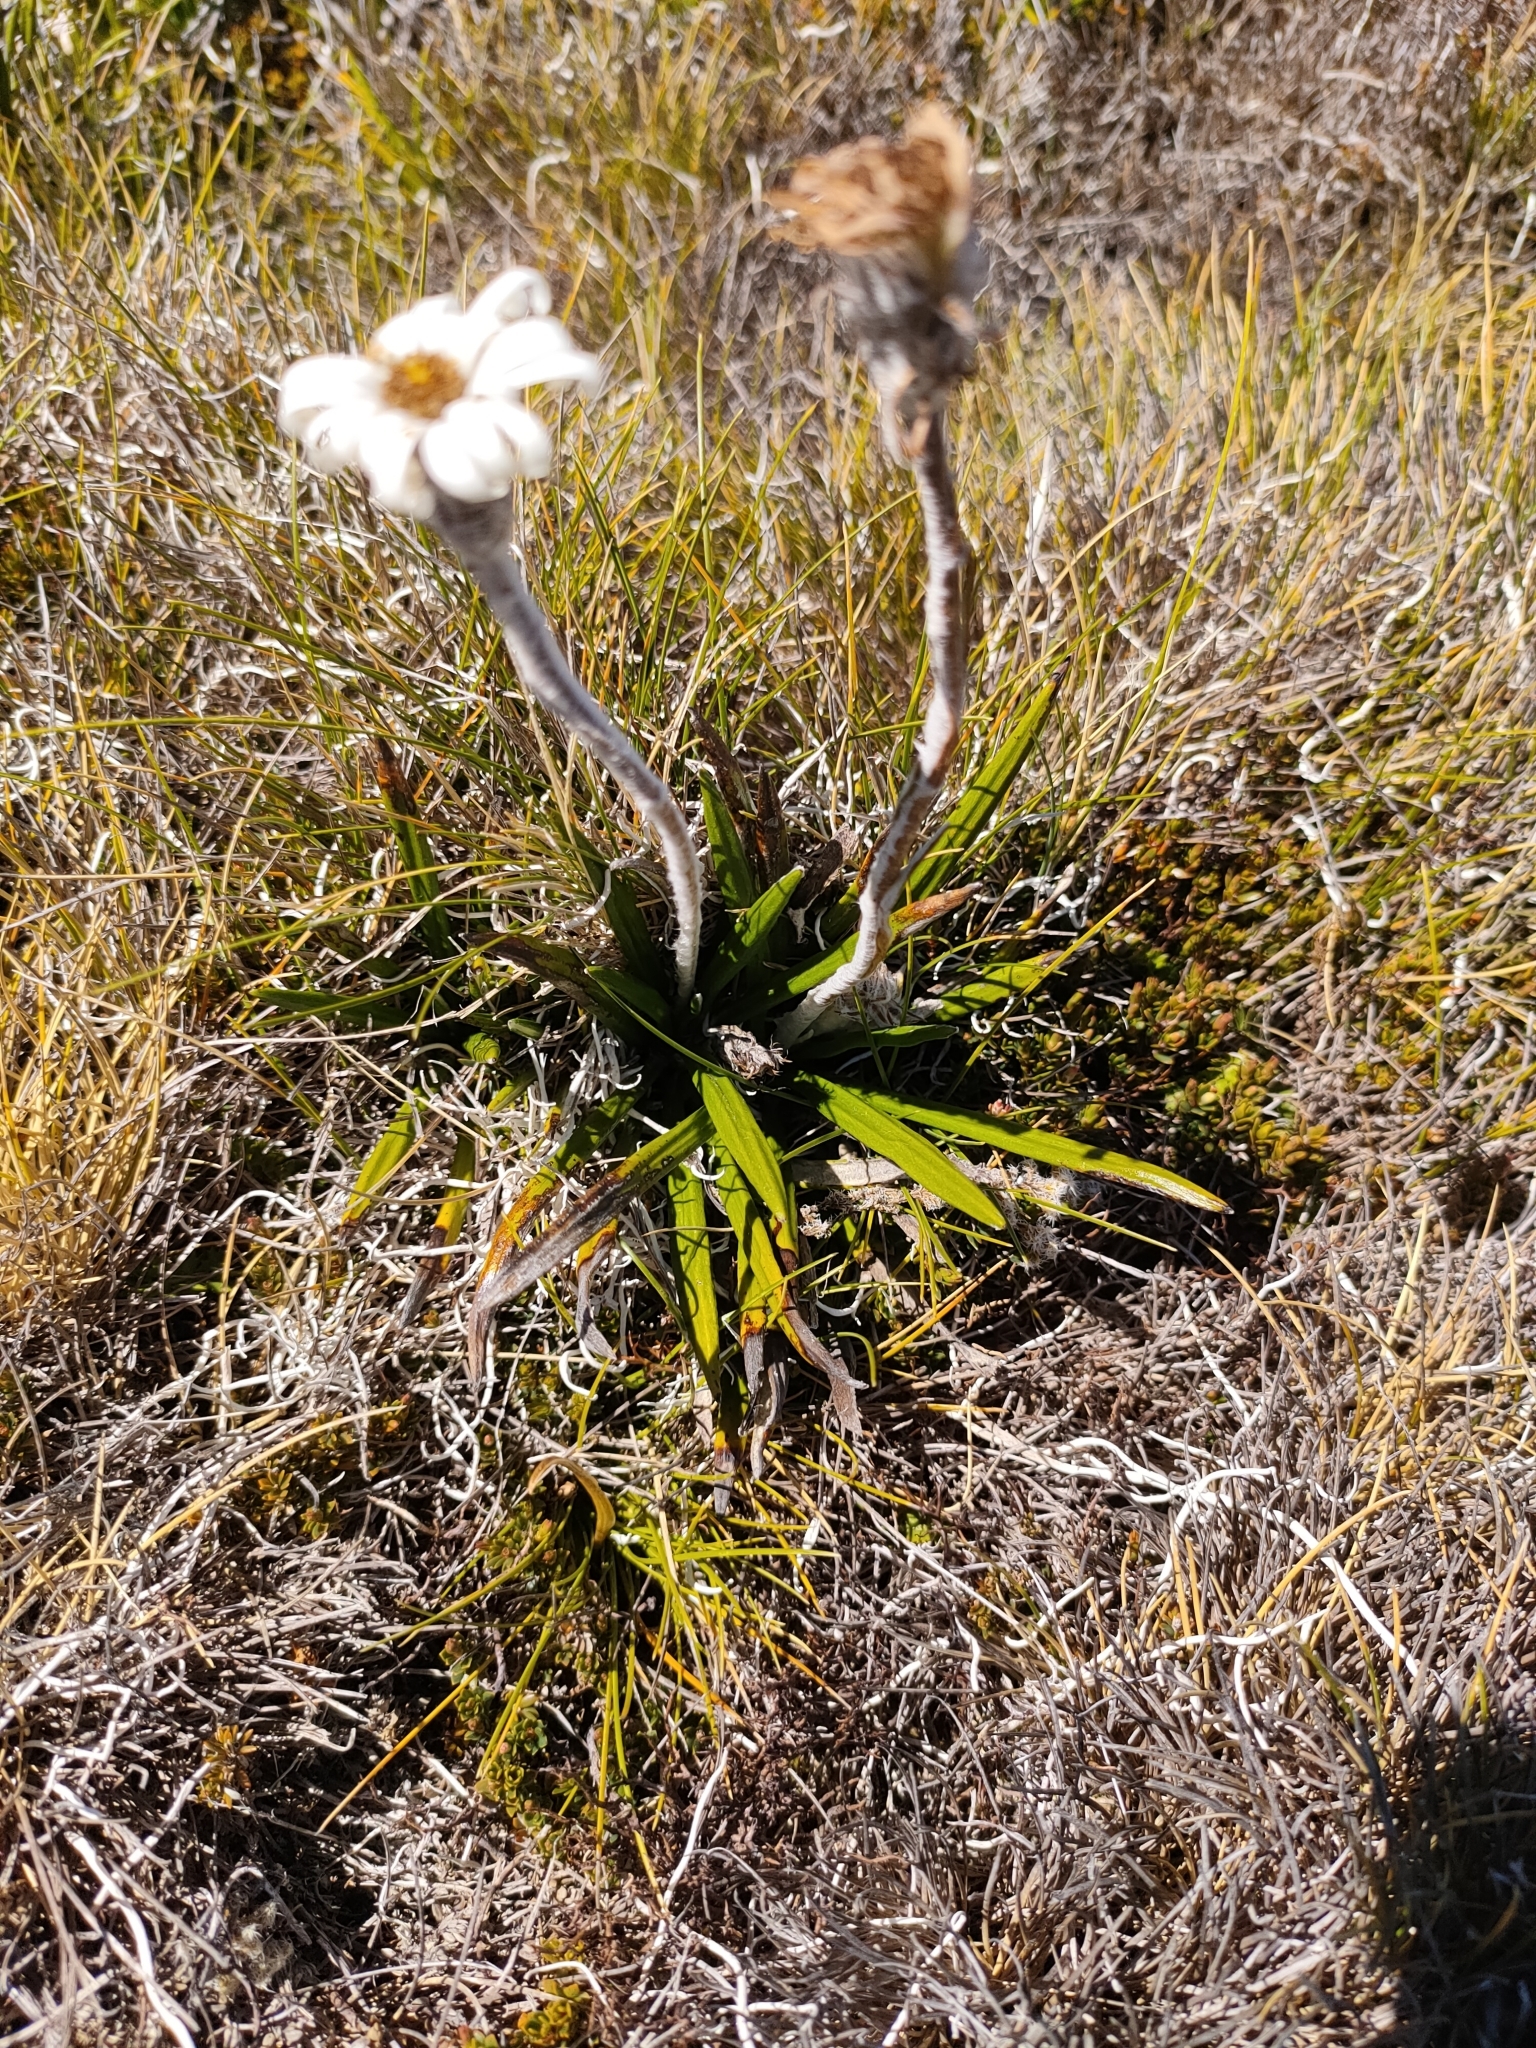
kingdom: Plantae
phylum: Tracheophyta
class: Magnoliopsida
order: Asterales
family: Asteraceae
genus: Celmisia
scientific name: Celmisia spectabilis
